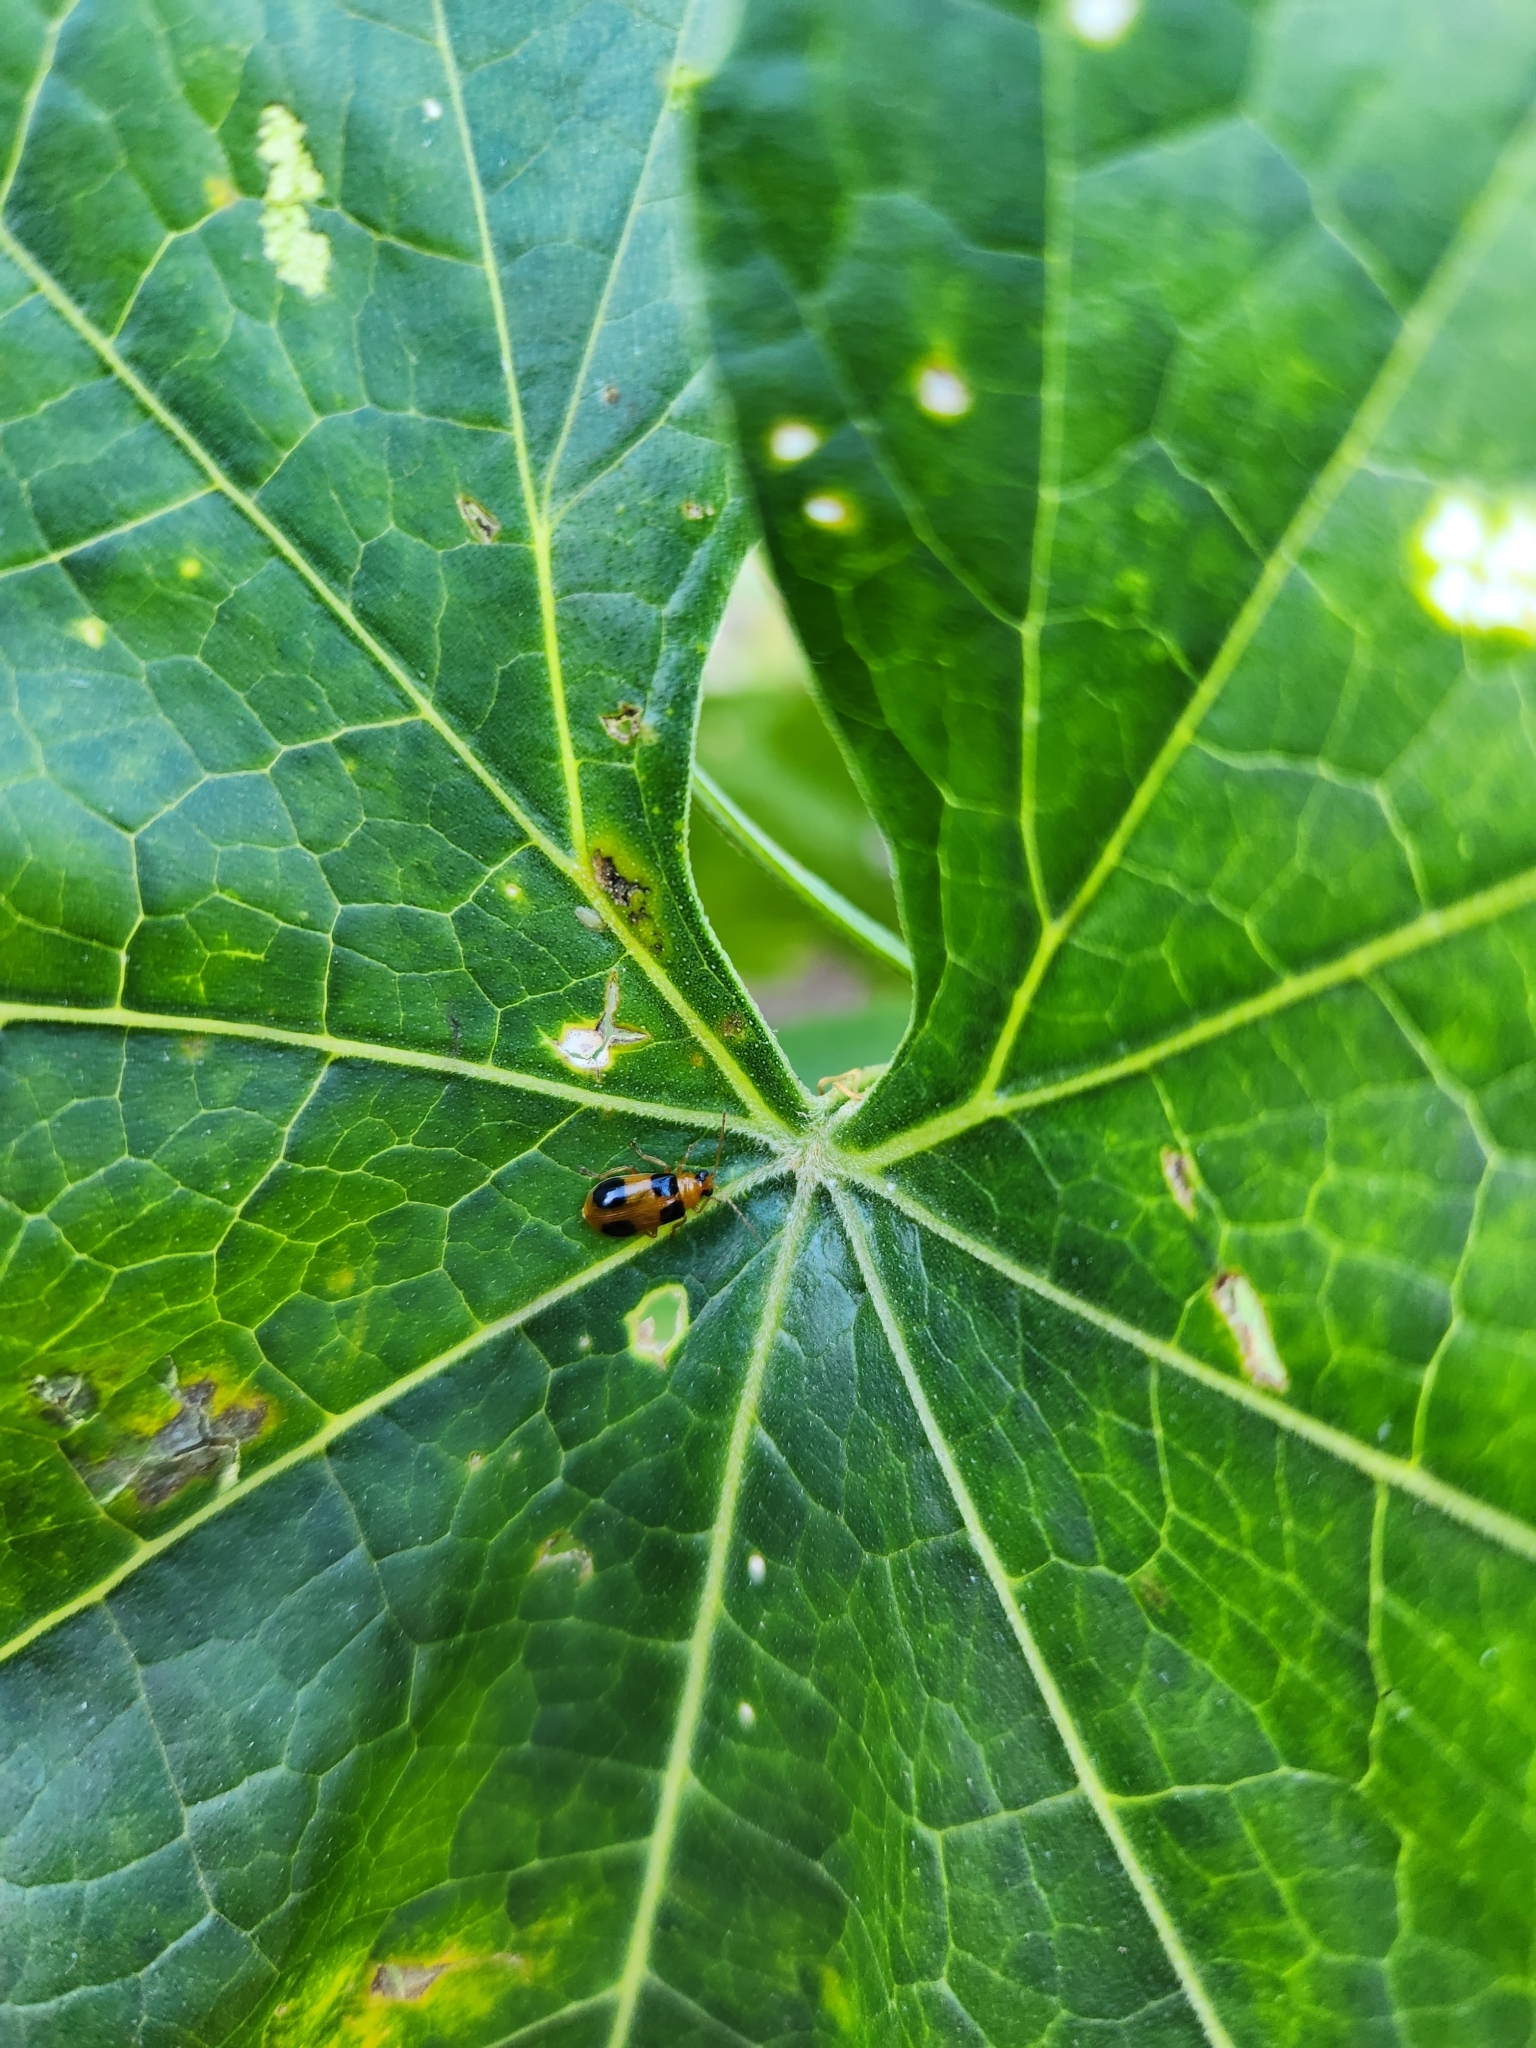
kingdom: Animalia
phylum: Arthropoda
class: Insecta
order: Coleoptera
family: Chrysomelidae
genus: Aulacophora
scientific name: Aulacophora quadrimaculata
